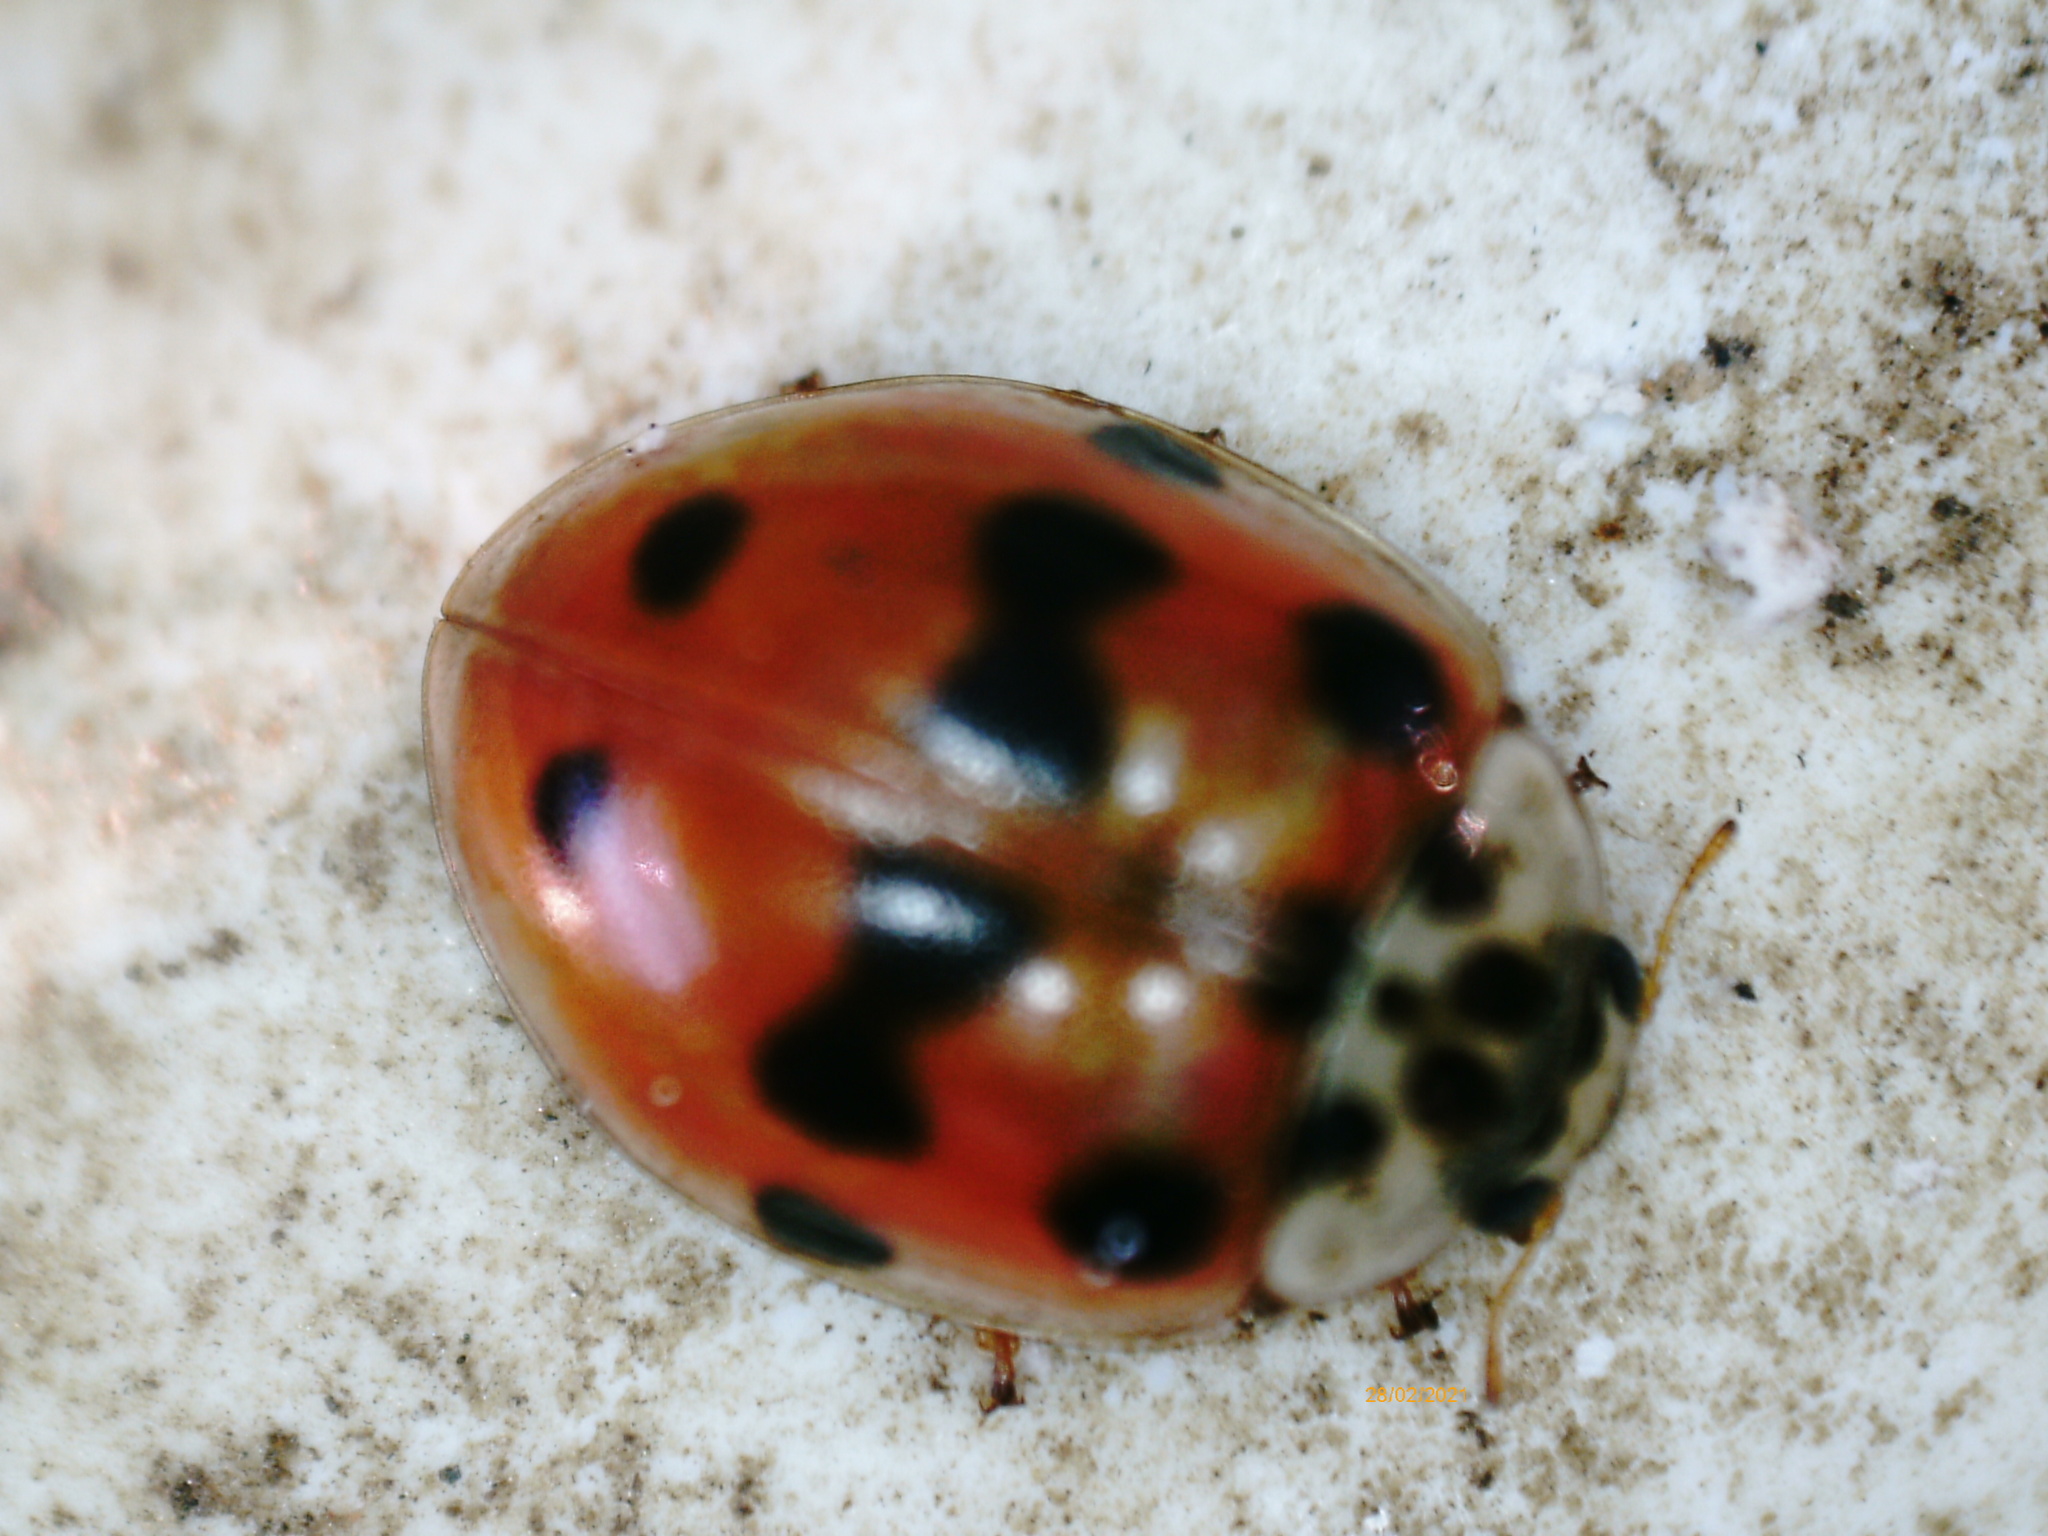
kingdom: Animalia
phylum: Arthropoda
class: Insecta
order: Coleoptera
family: Coccinellidae
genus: Adalia
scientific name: Adalia decempunctata
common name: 10-spot ladybird
